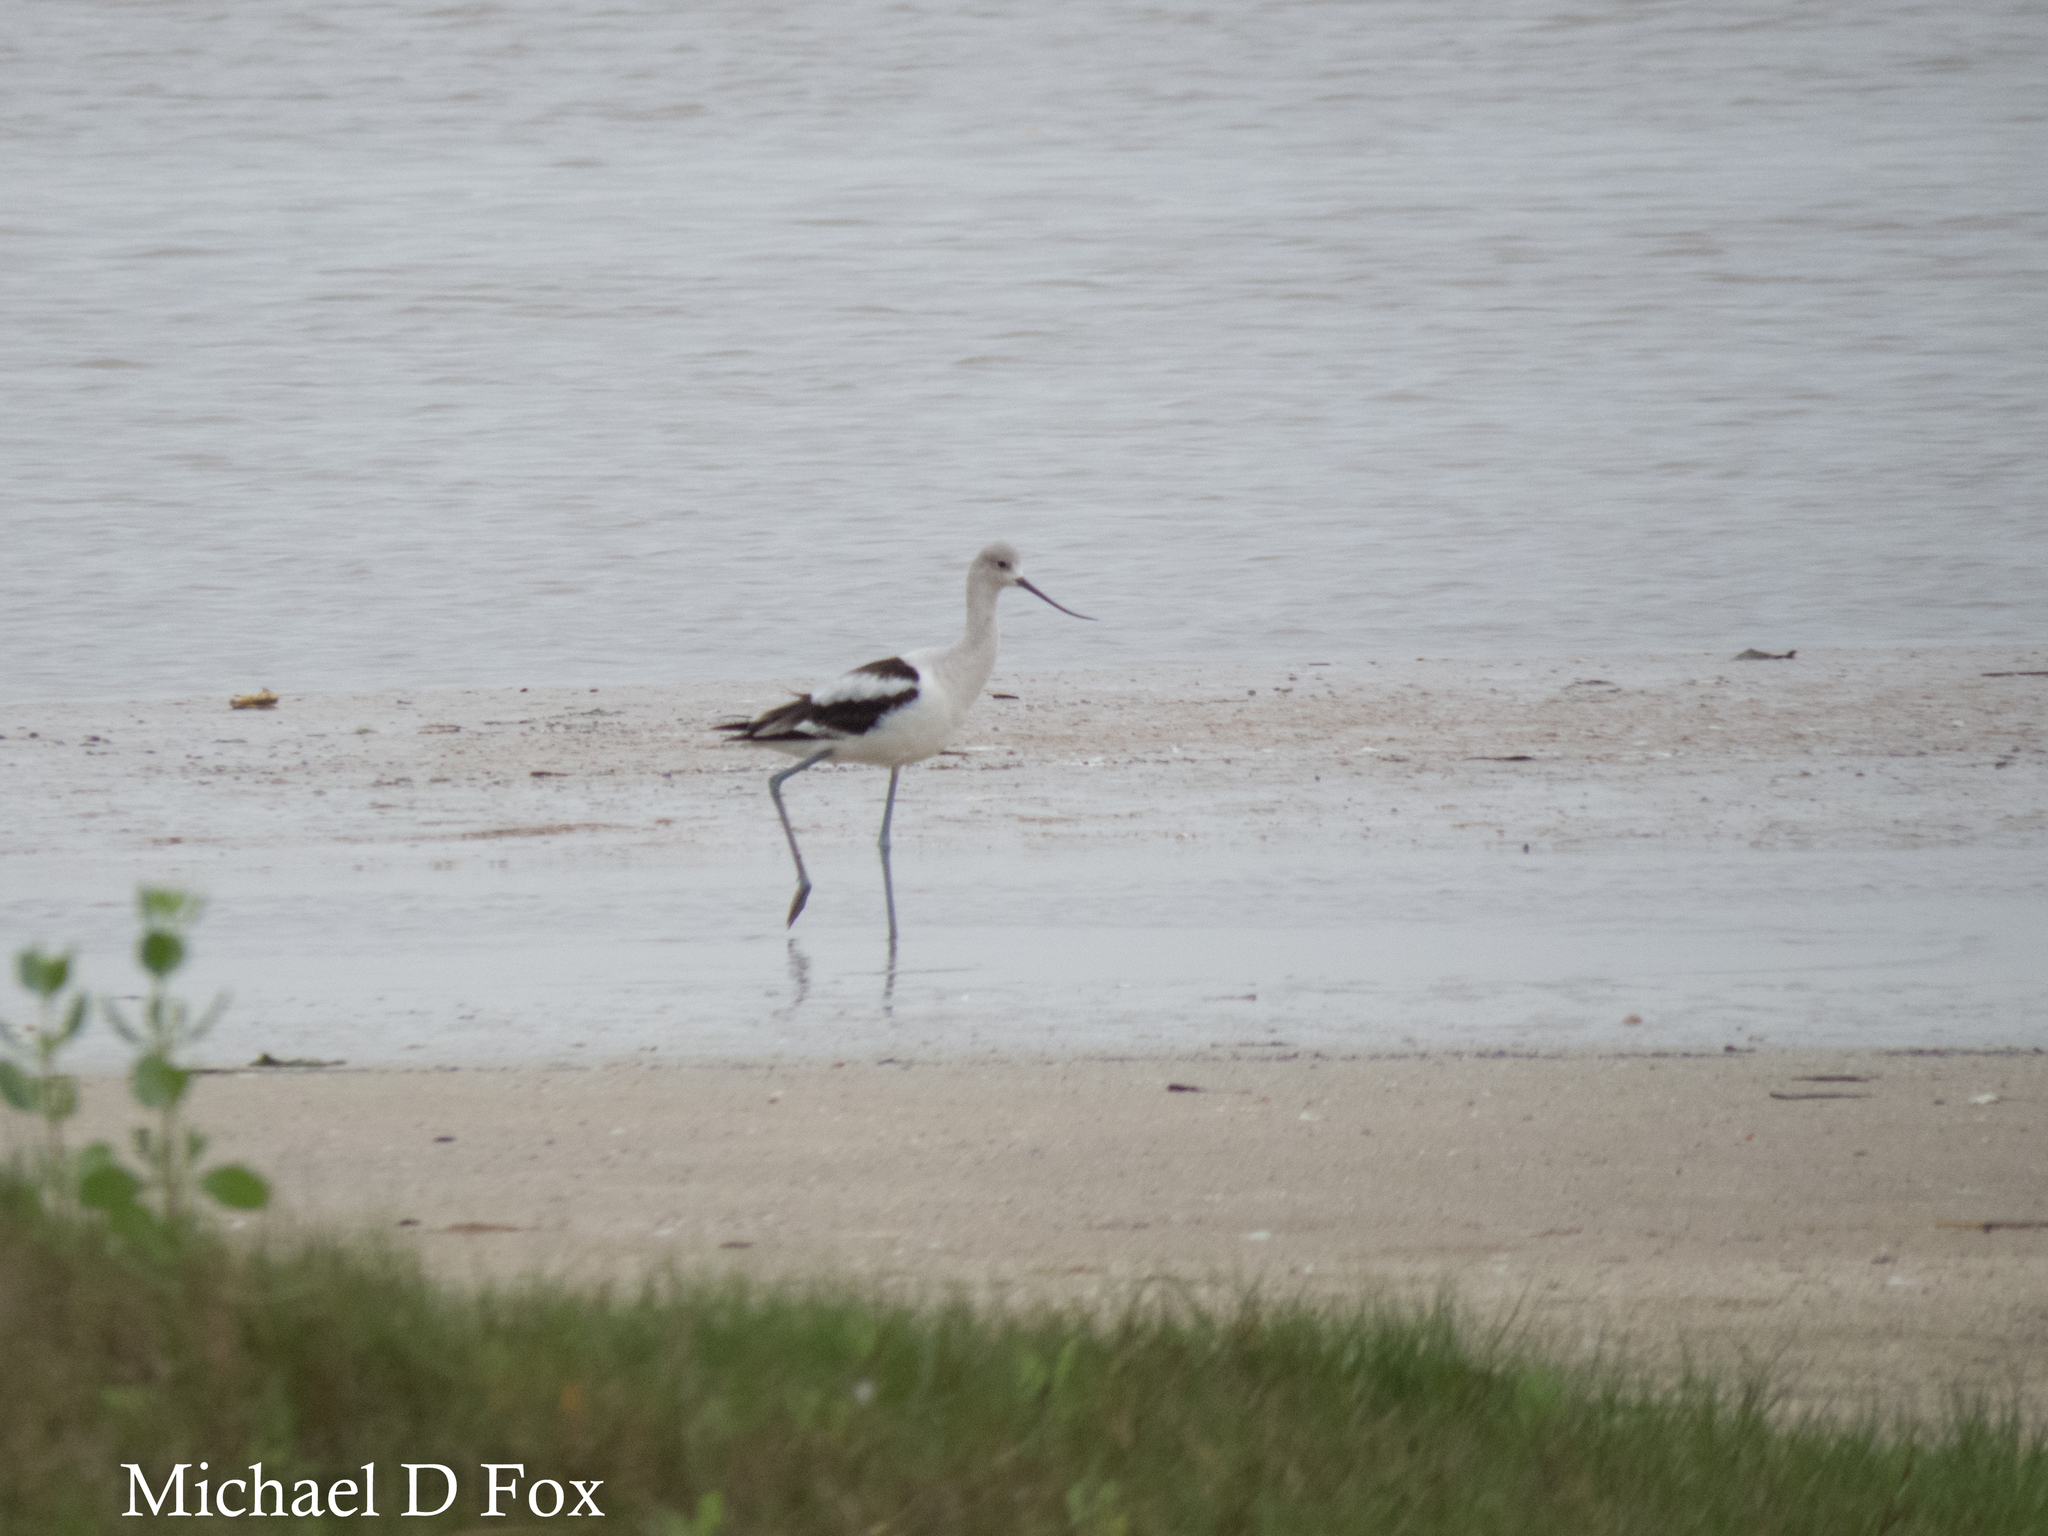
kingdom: Animalia
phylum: Chordata
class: Aves
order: Charadriiformes
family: Recurvirostridae
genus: Recurvirostra
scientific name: Recurvirostra americana
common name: American avocet
